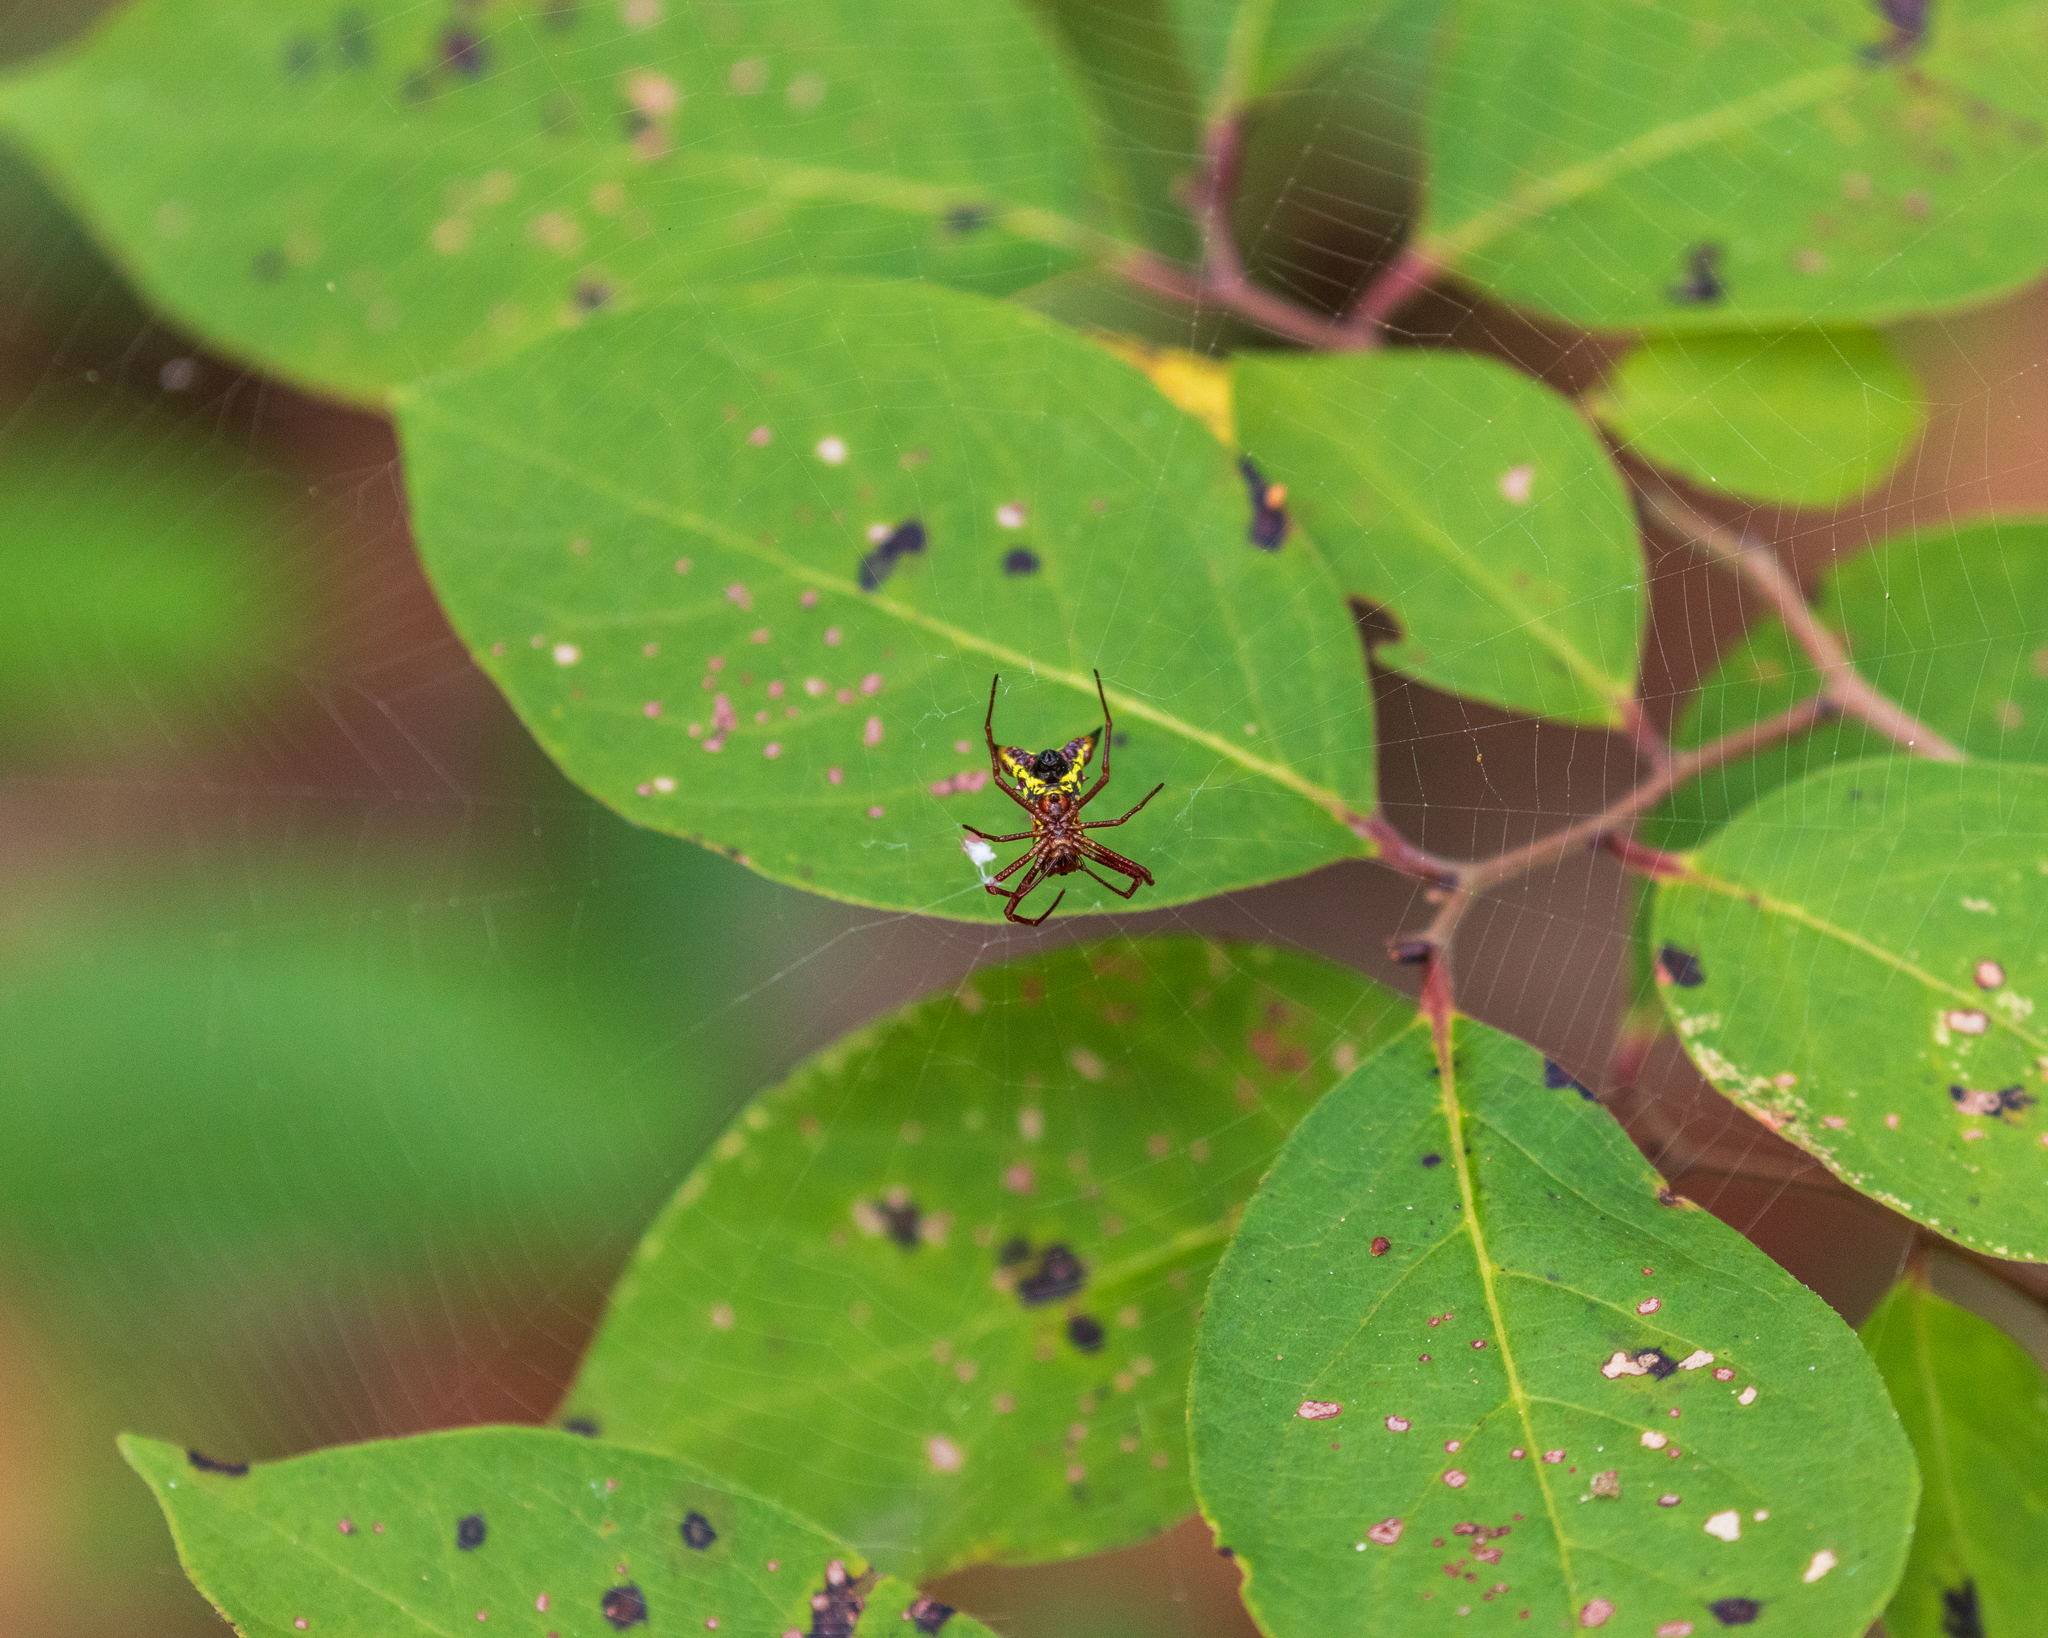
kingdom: Animalia
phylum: Arthropoda
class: Arachnida
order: Araneae
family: Araneidae
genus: Micrathena
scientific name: Micrathena sagittata
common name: Orb weavers
